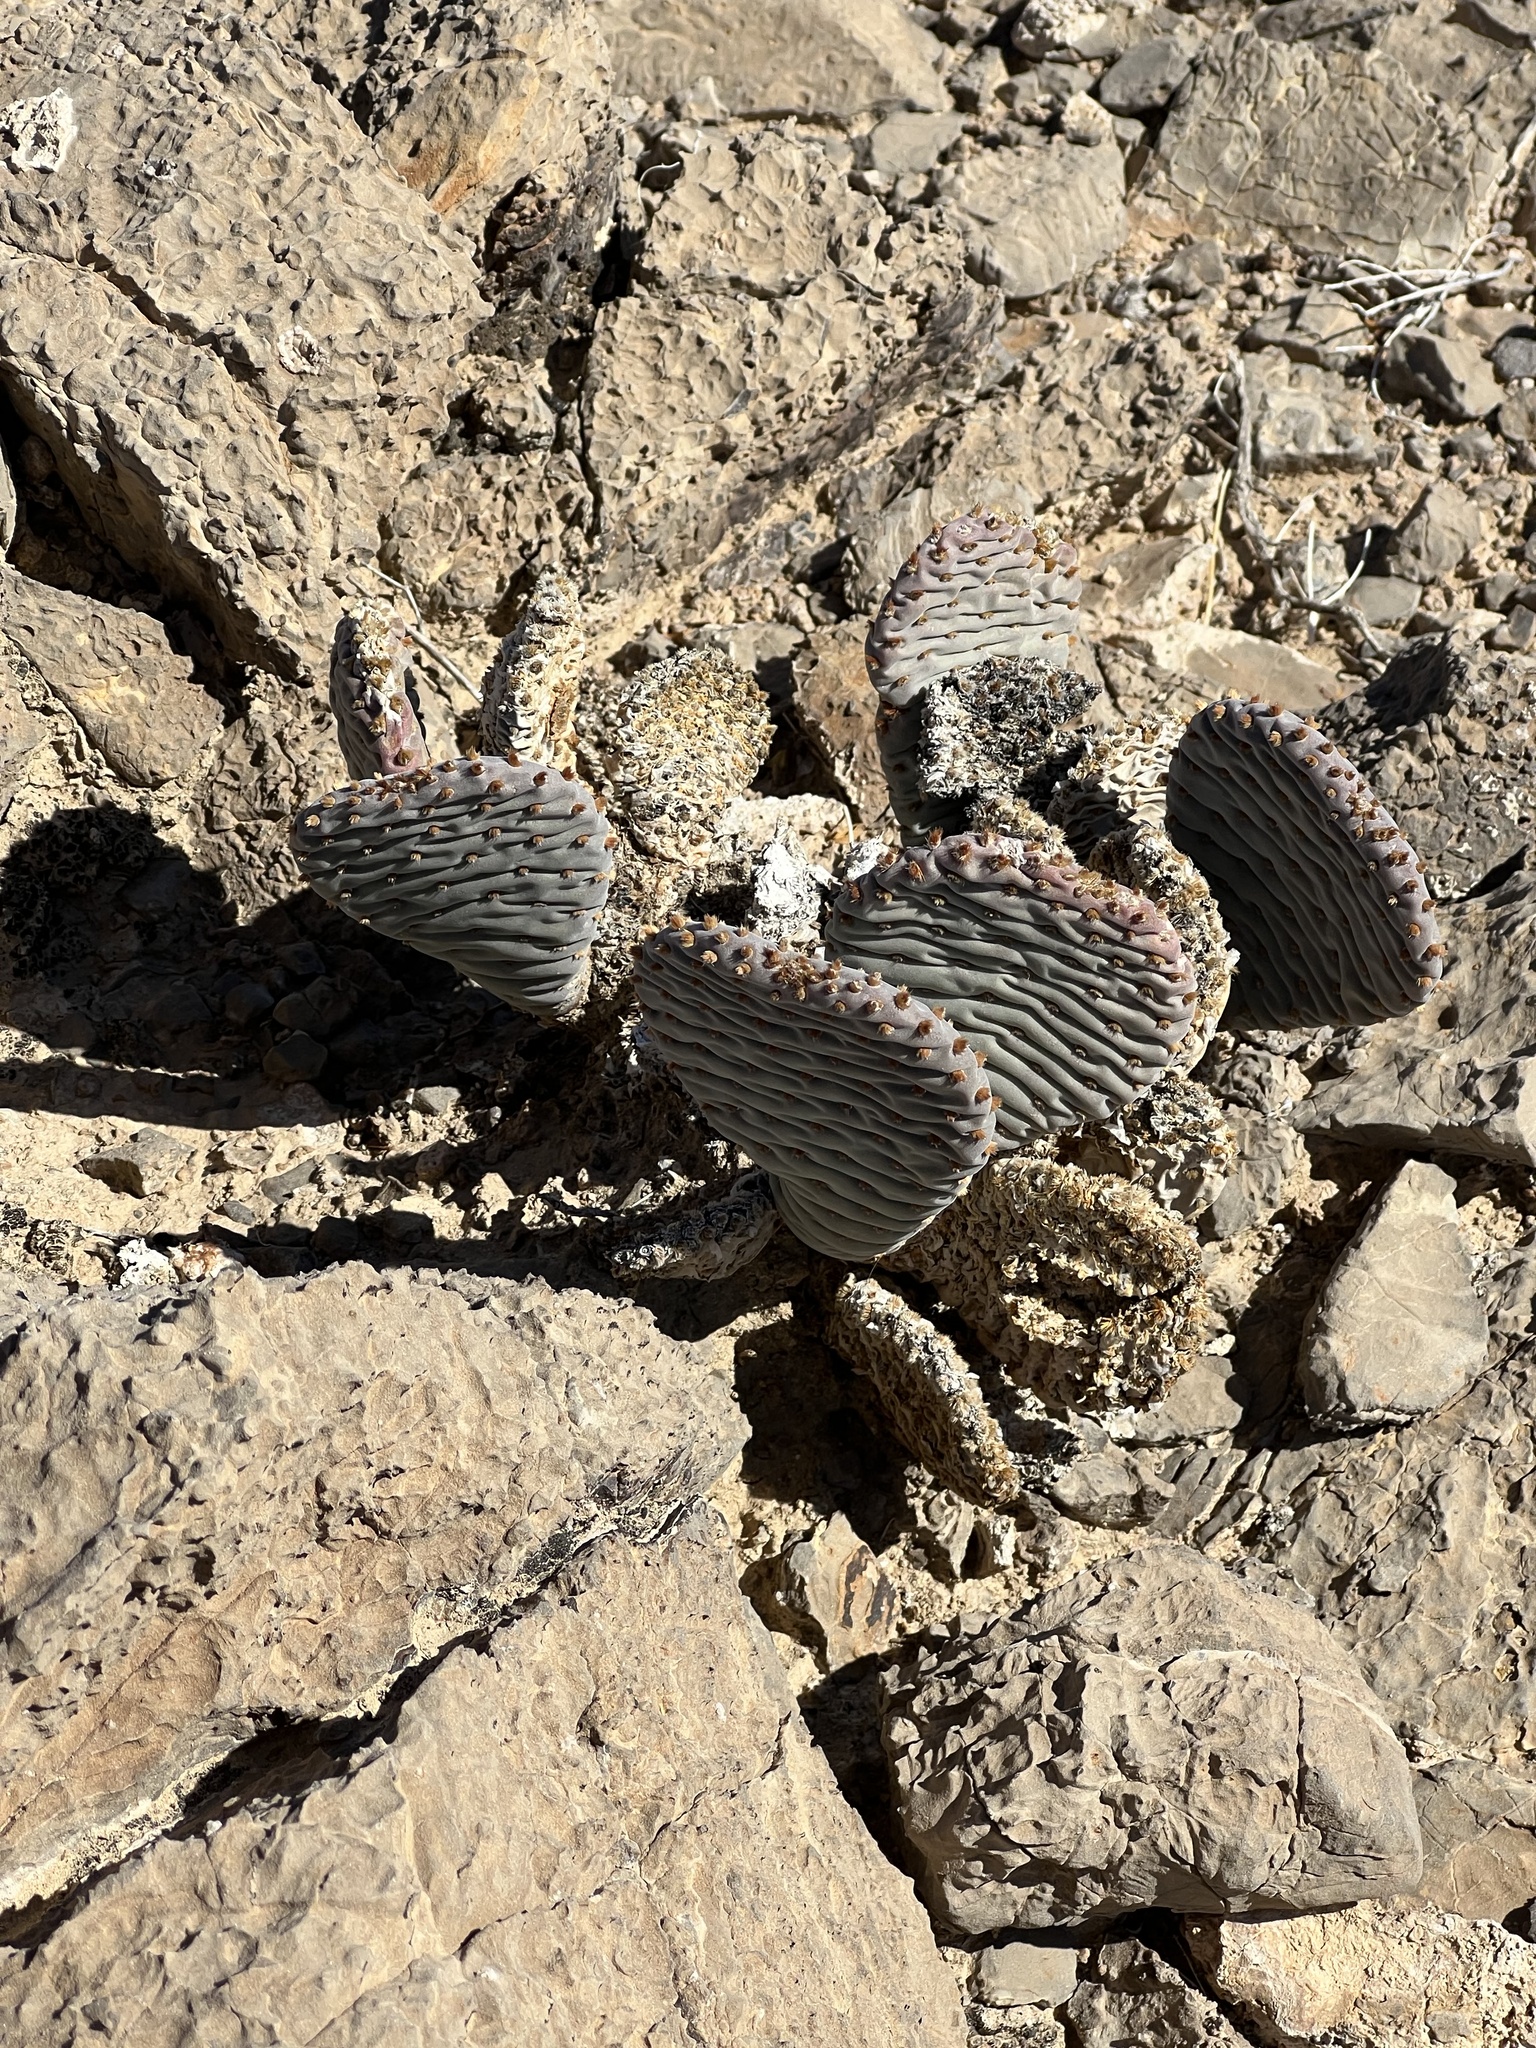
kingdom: Plantae
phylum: Tracheophyta
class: Magnoliopsida
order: Caryophyllales
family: Cactaceae
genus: Opuntia
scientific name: Opuntia basilaris
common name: Beavertail prickly-pear
